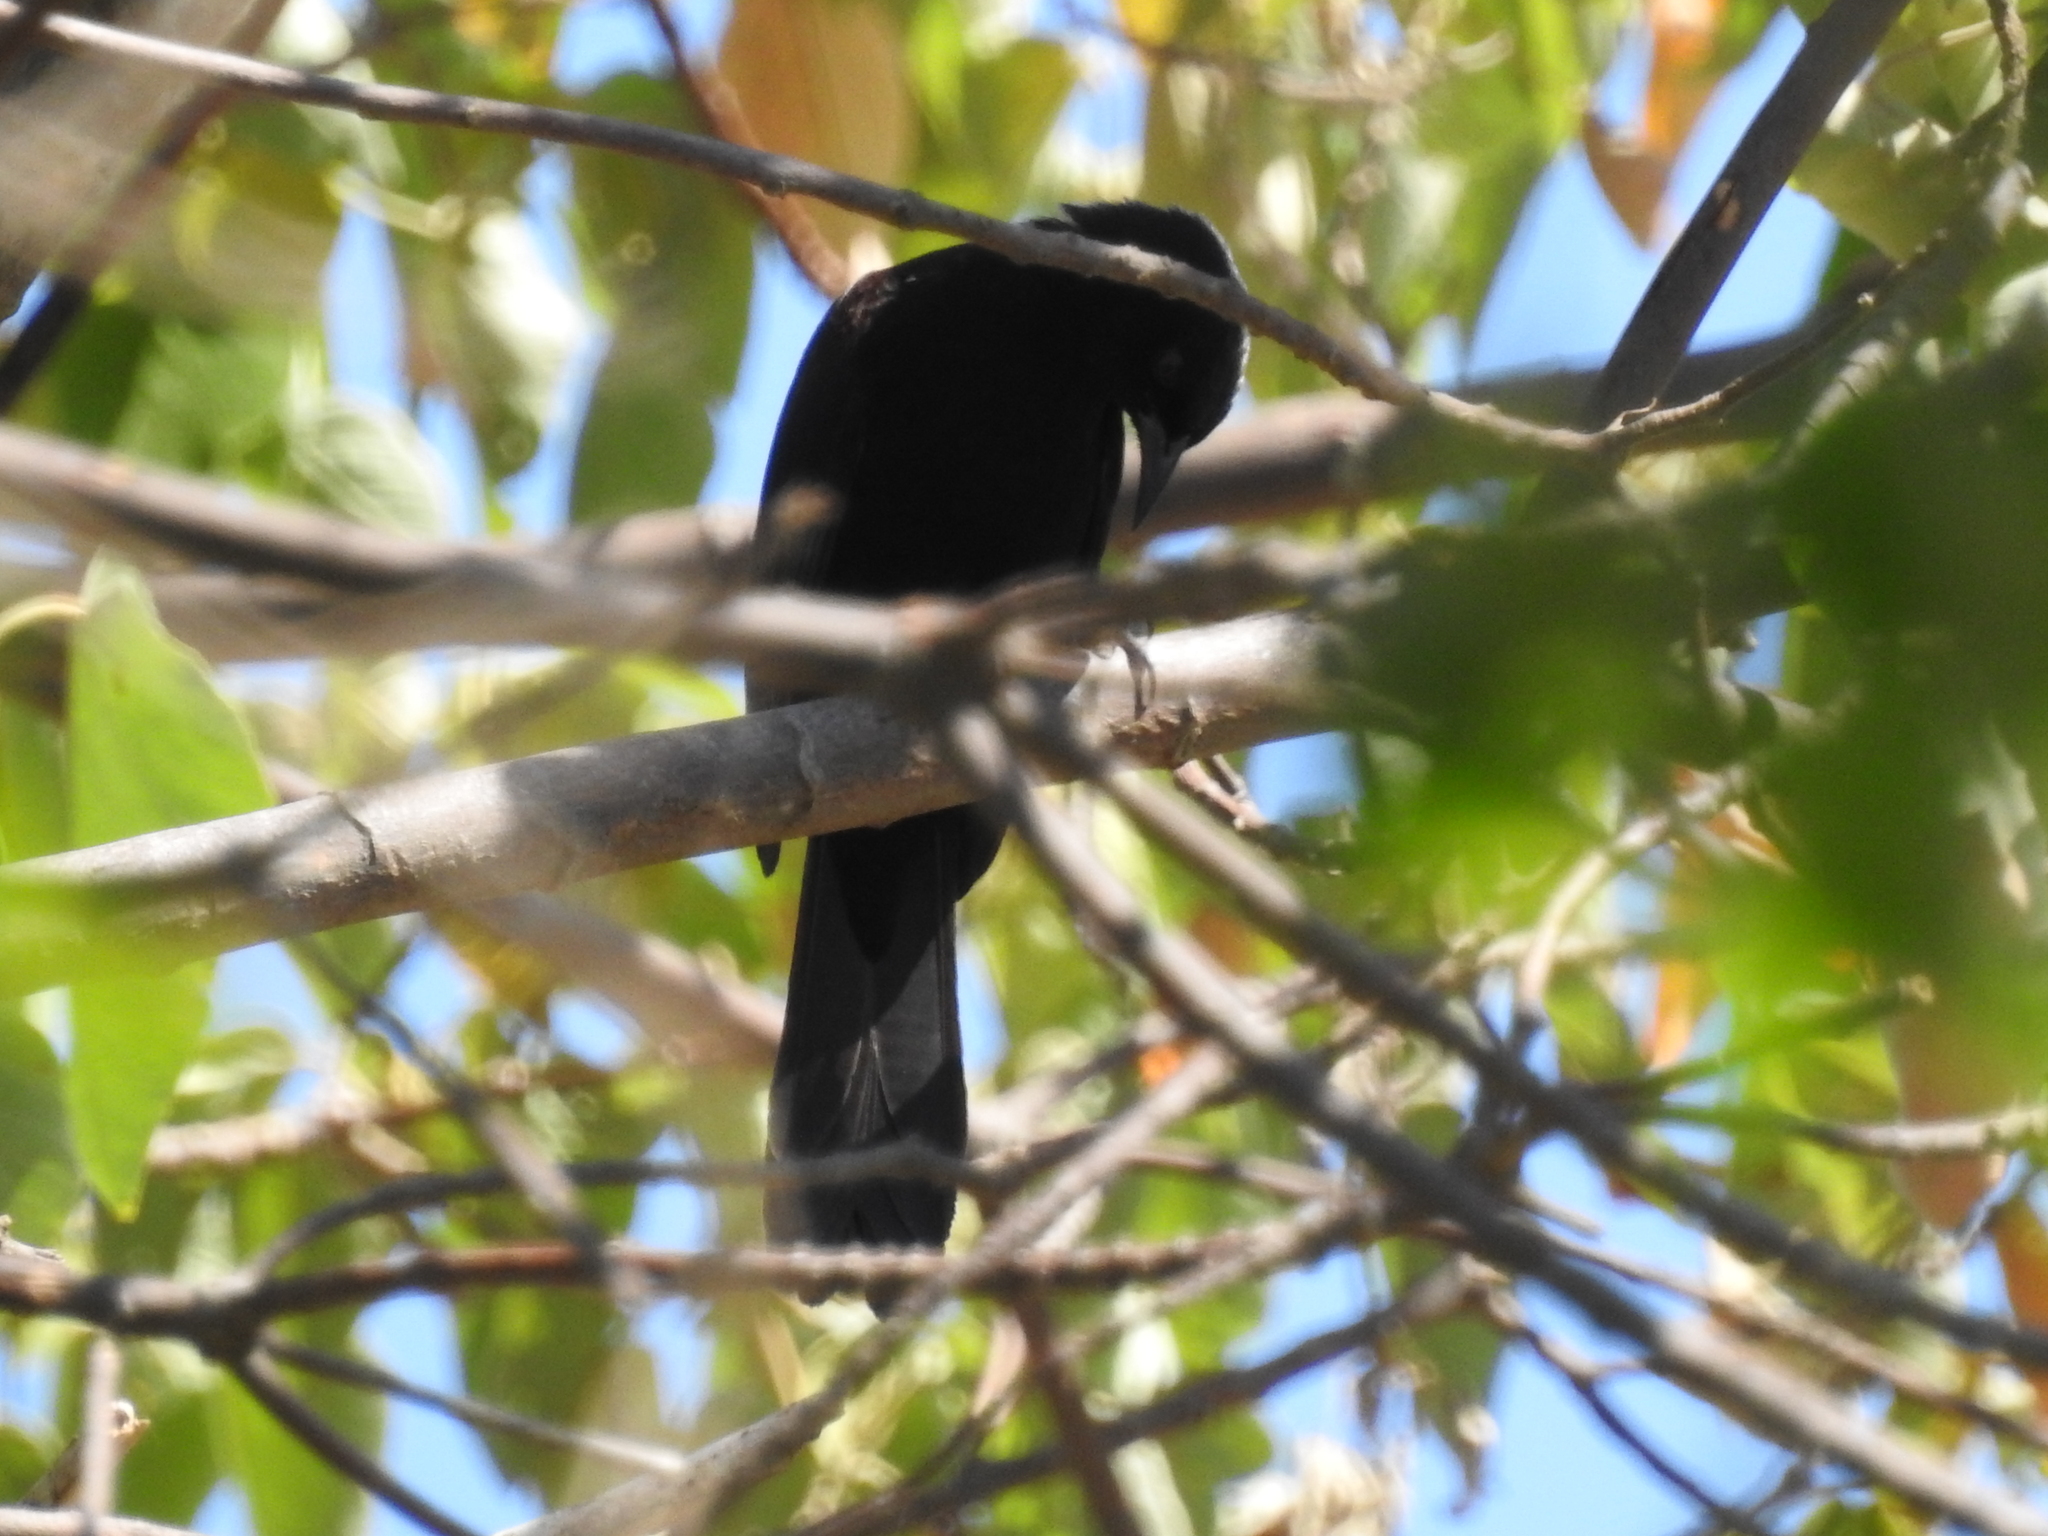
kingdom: Animalia
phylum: Chordata
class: Aves
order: Passeriformes
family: Icteridae
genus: Icterus
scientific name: Icterus cayanensis
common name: Epaulet oriole
